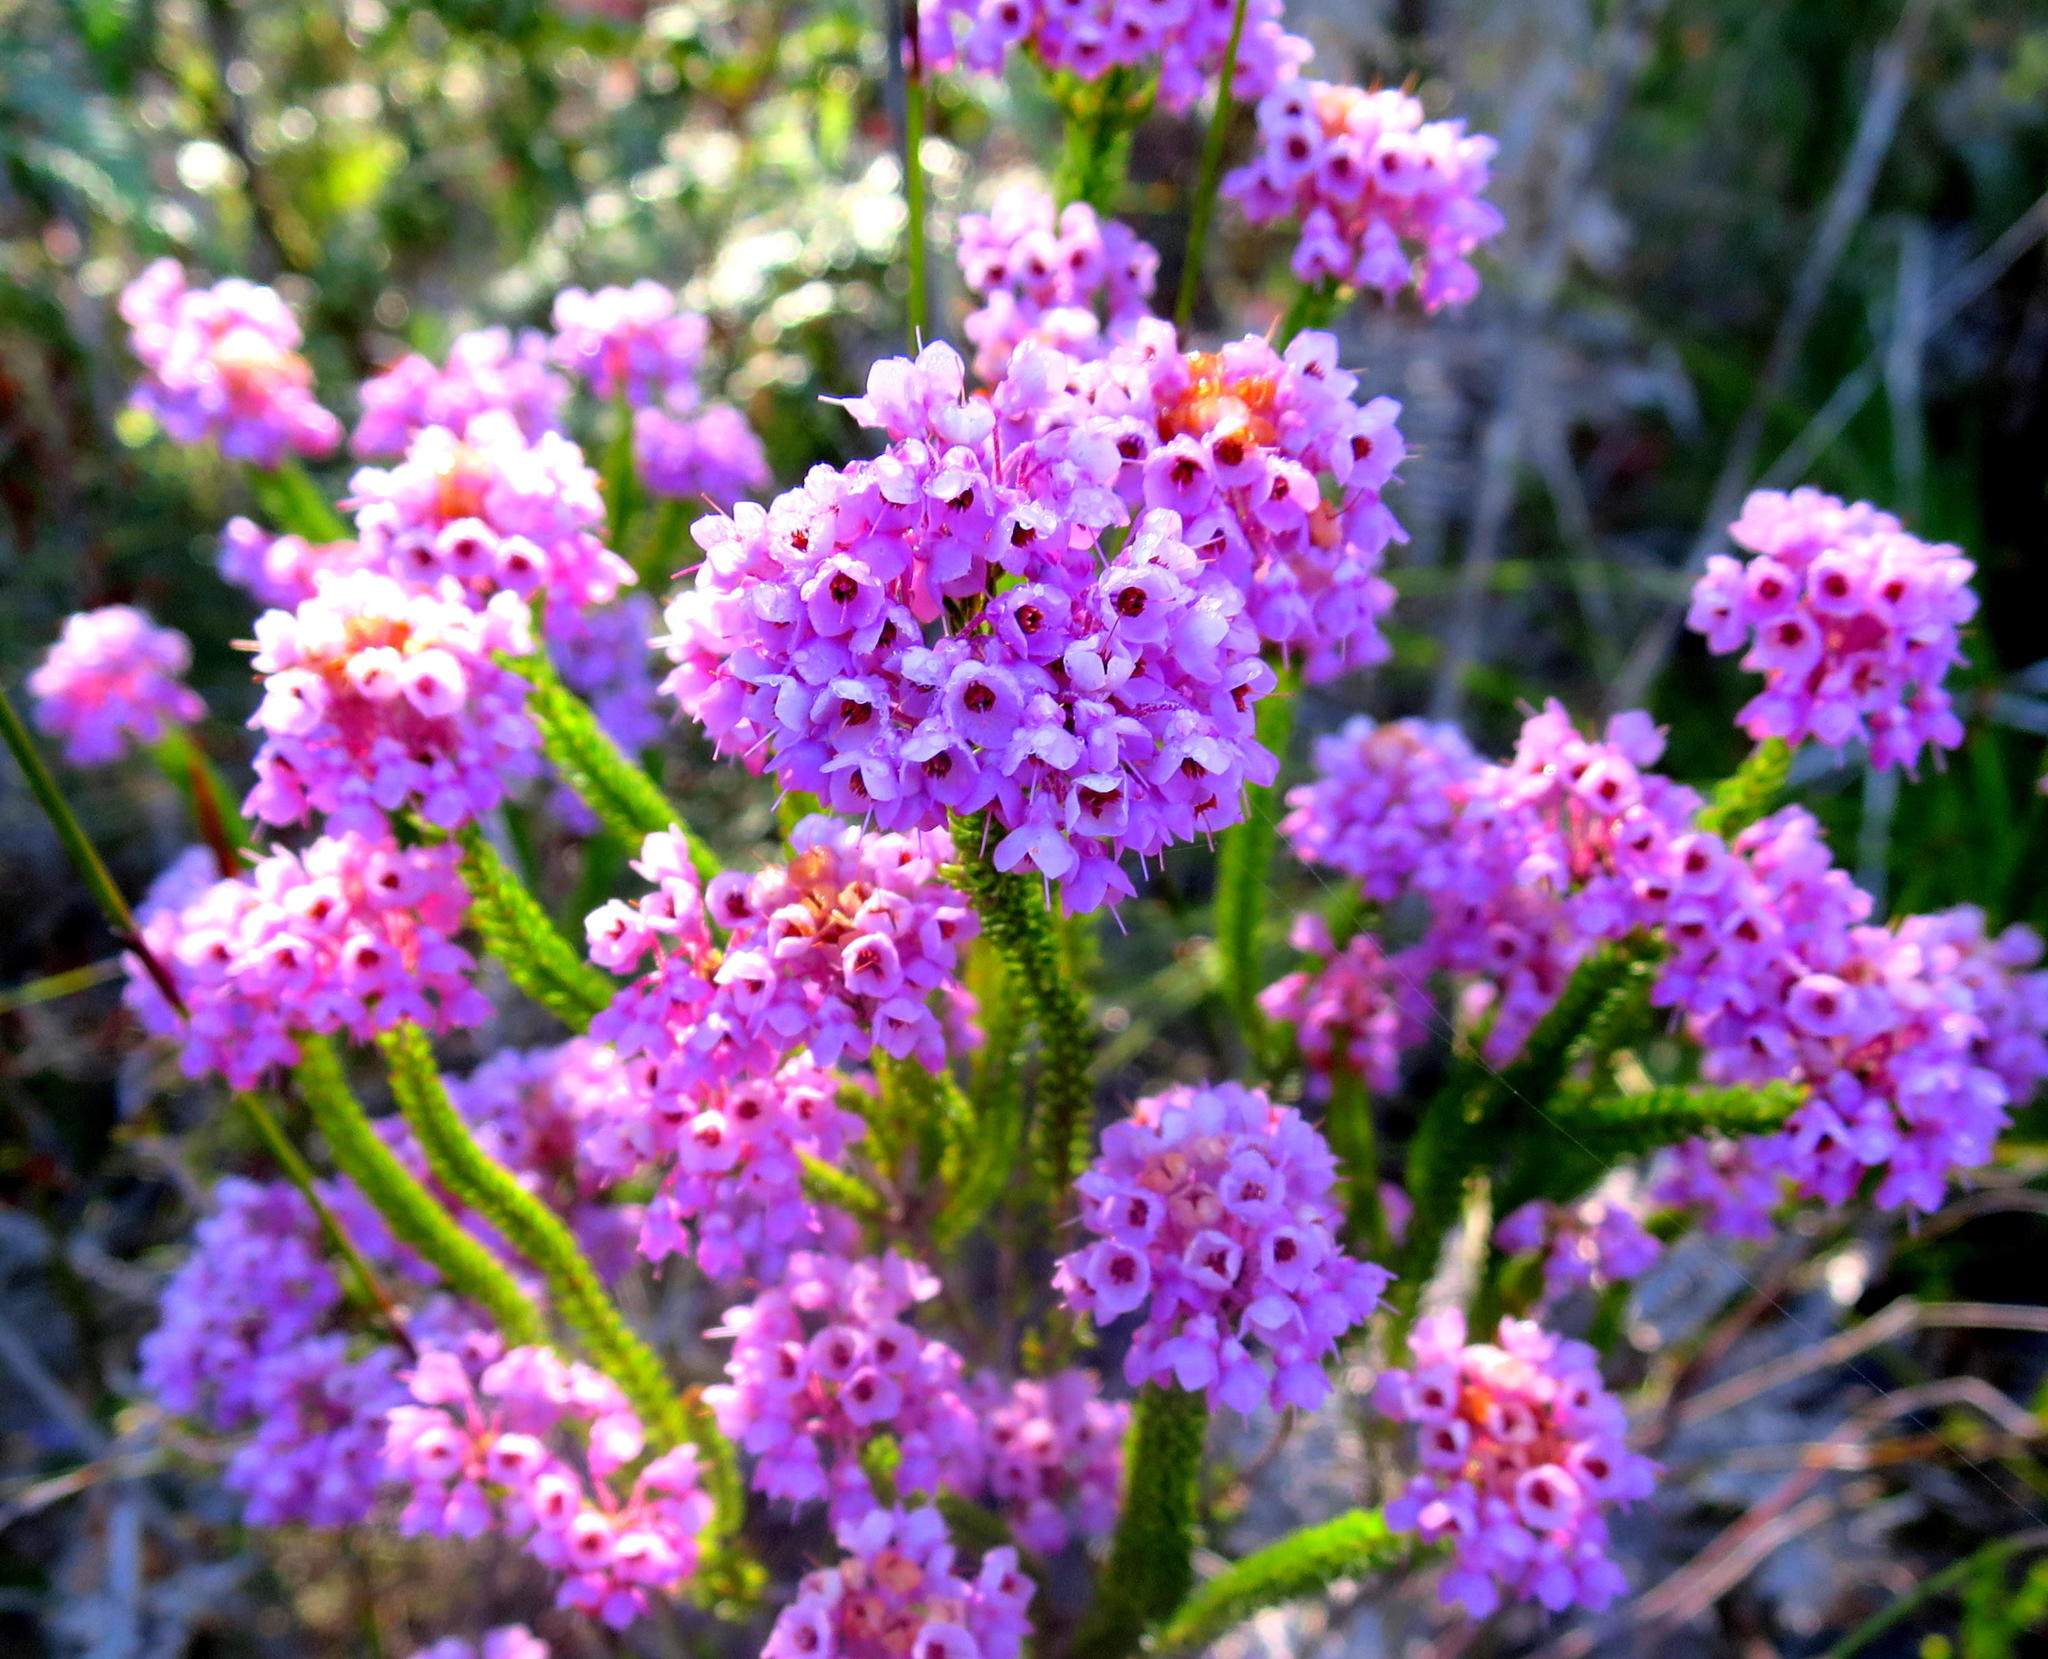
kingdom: Plantae
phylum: Tracheophyta
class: Magnoliopsida
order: Ericales
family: Ericaceae
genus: Erica
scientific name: Erica seriphiifolia
